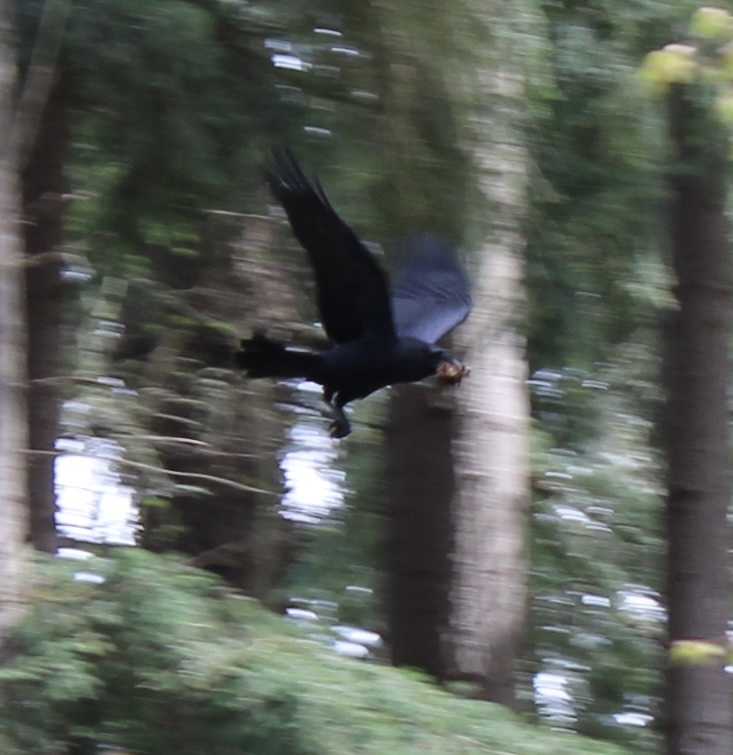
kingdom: Animalia
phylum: Chordata
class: Aves
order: Passeriformes
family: Corvidae
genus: Corvus
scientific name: Corvus corax
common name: Common raven
